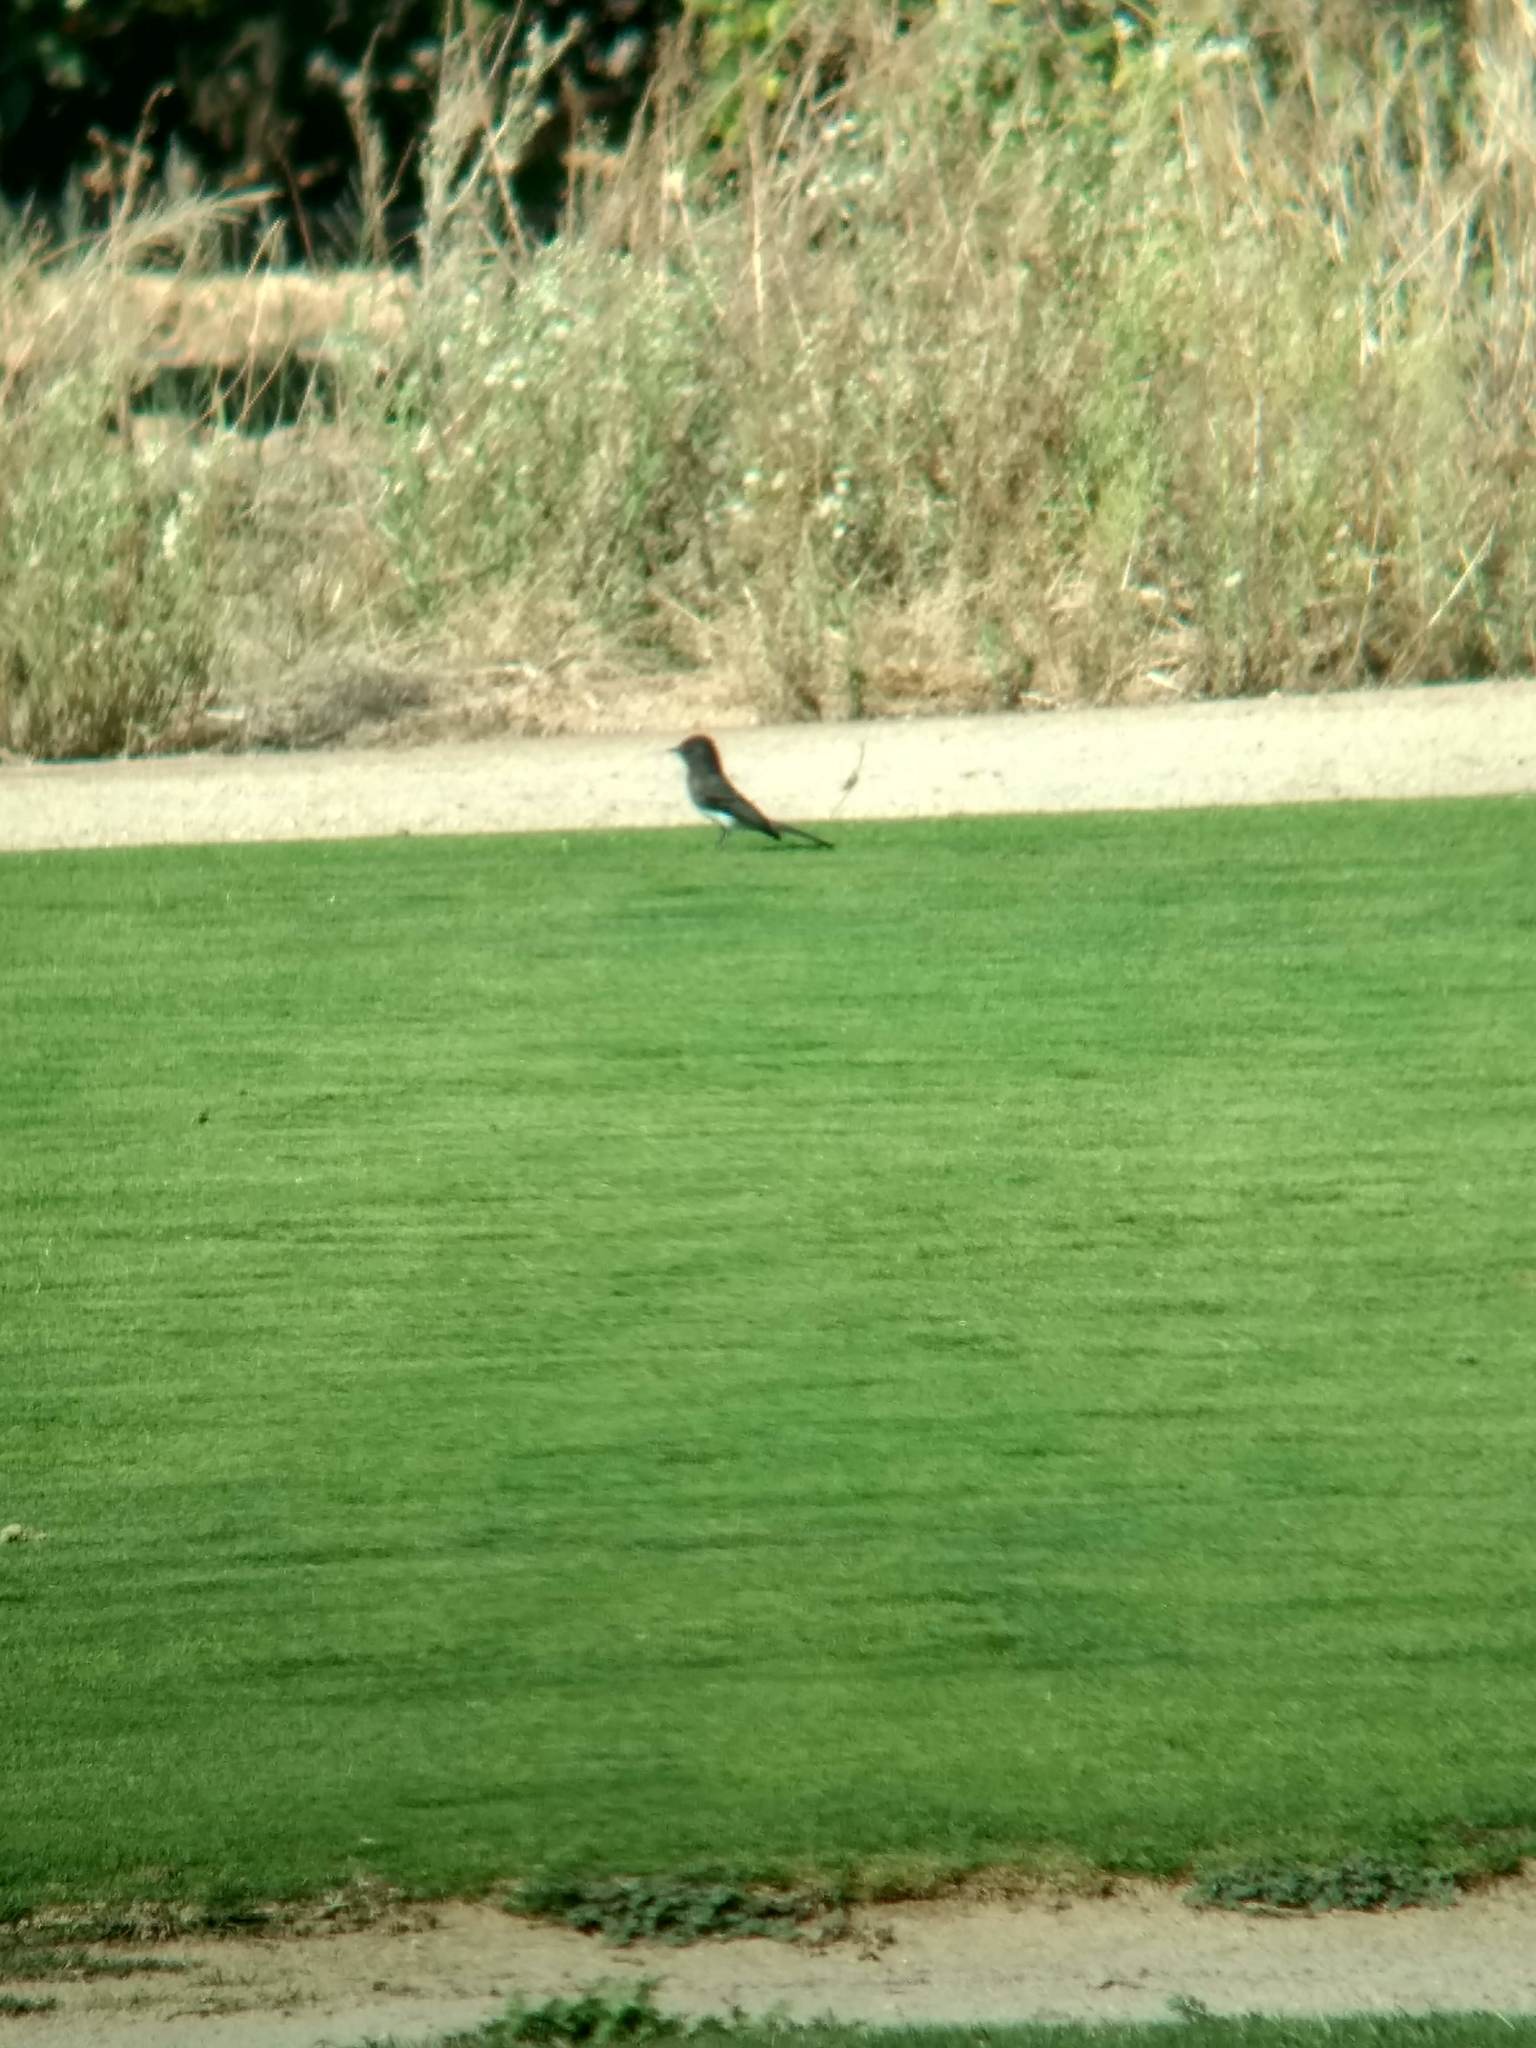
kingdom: Animalia
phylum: Chordata
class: Aves
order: Passeriformes
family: Tyrannidae
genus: Sayornis
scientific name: Sayornis nigricans
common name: Black phoebe
